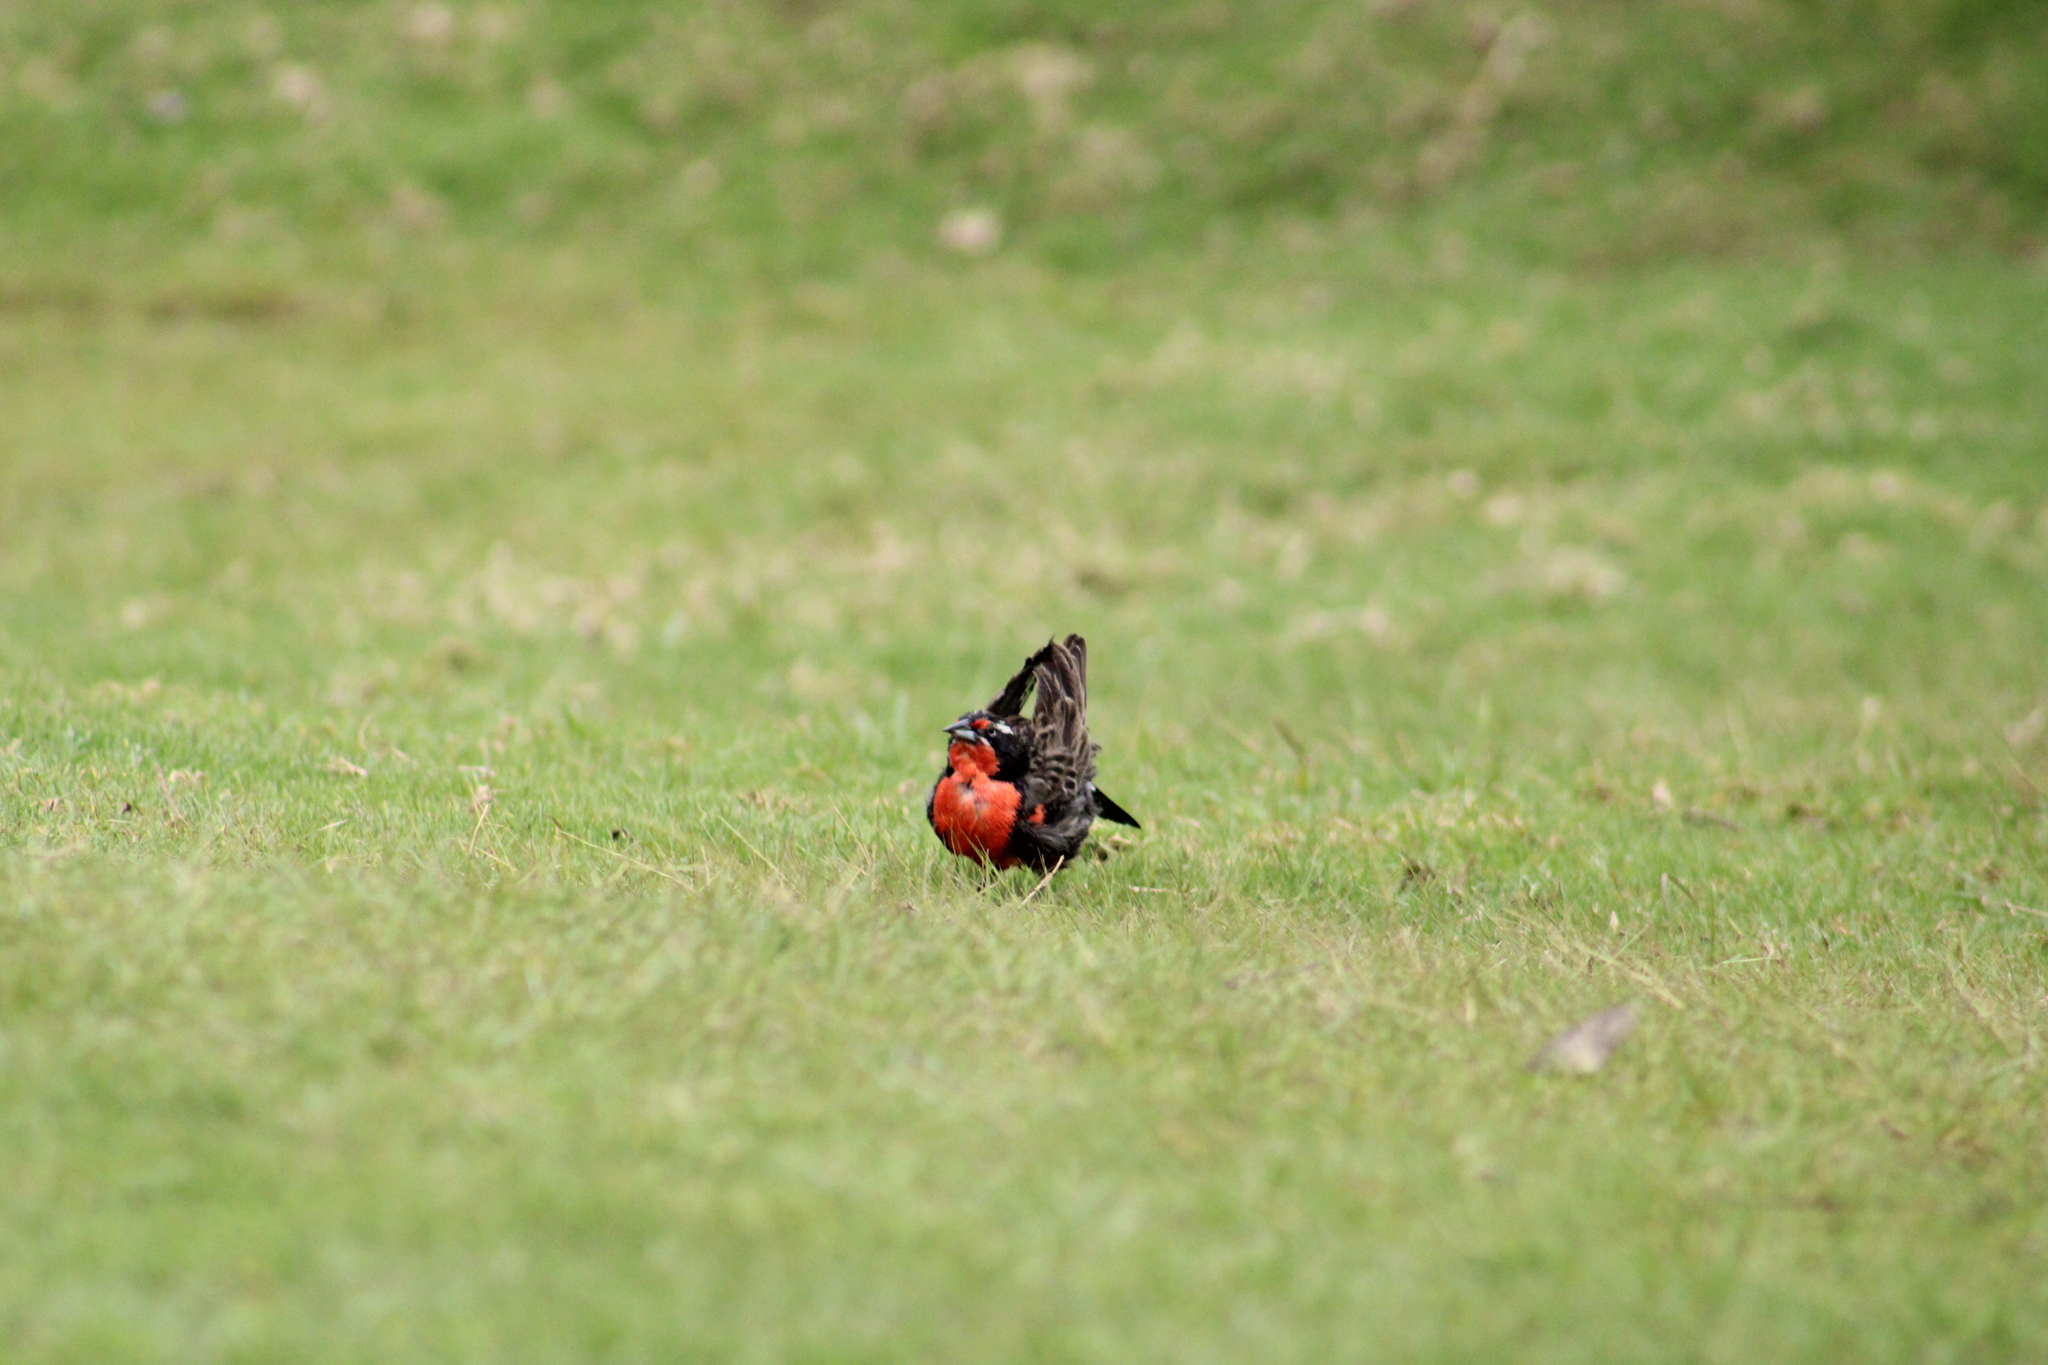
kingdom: Animalia
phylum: Chordata
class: Aves
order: Passeriformes
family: Icteridae
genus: Sturnella
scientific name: Sturnella loyca
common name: Long-tailed meadowlark
